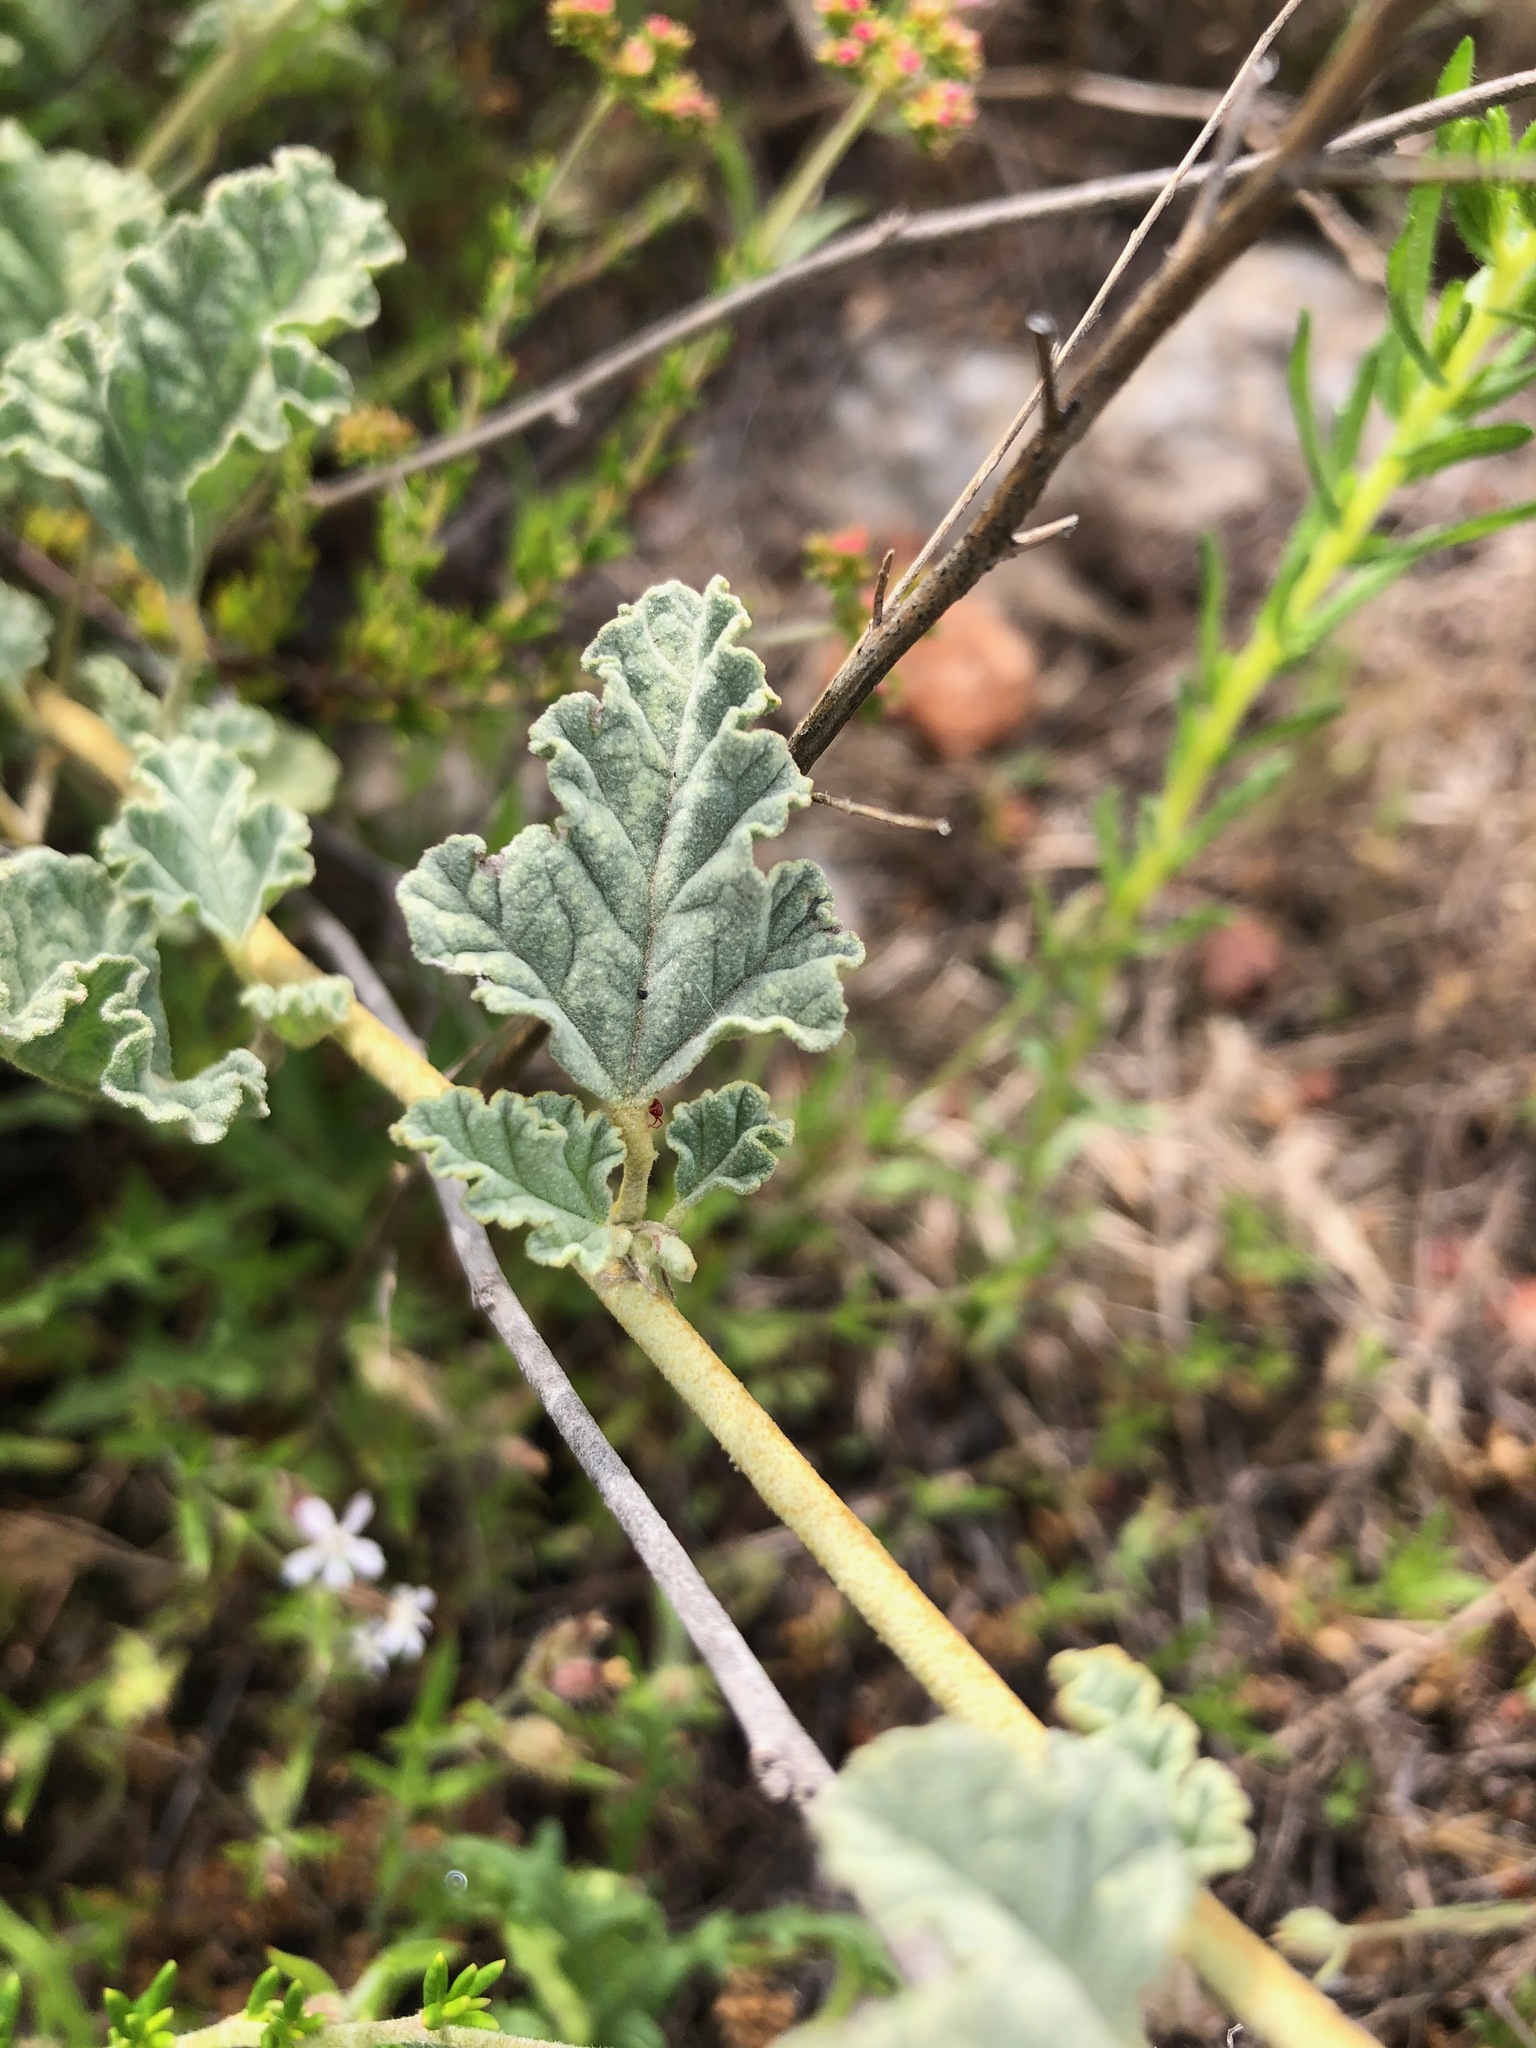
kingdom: Plantae
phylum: Tracheophyta
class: Magnoliopsida
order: Malvales
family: Malvaceae
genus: Sphaeralcea
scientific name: Sphaeralcea ambigua
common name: Apricot globe-mallow
